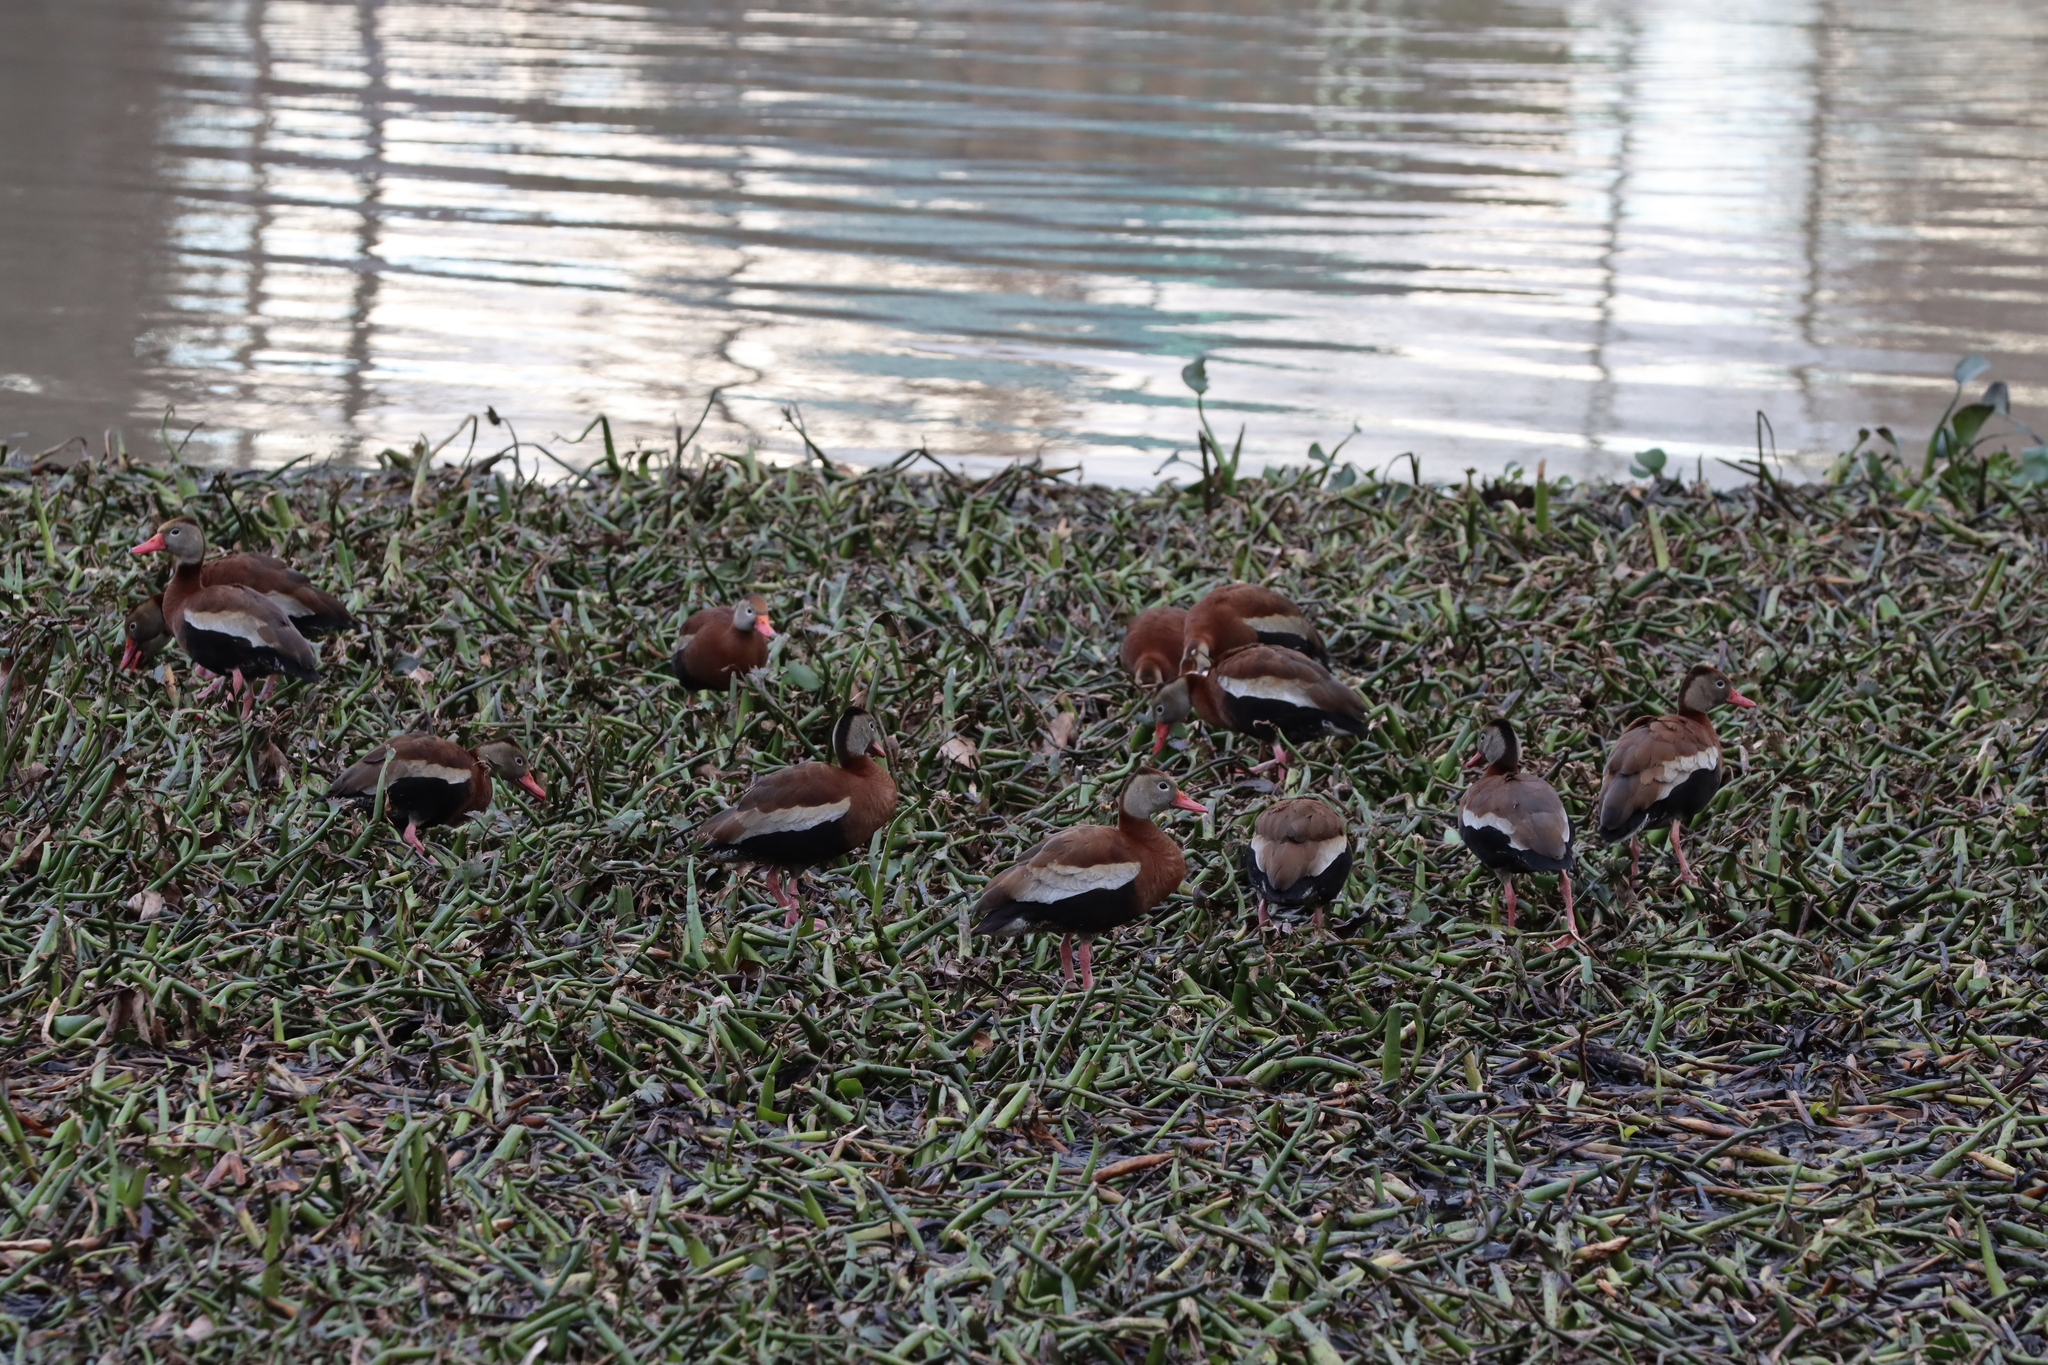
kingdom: Animalia
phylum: Chordata
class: Aves
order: Anseriformes
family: Anatidae
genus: Dendrocygna
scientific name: Dendrocygna autumnalis
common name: Black-bellied whistling duck
